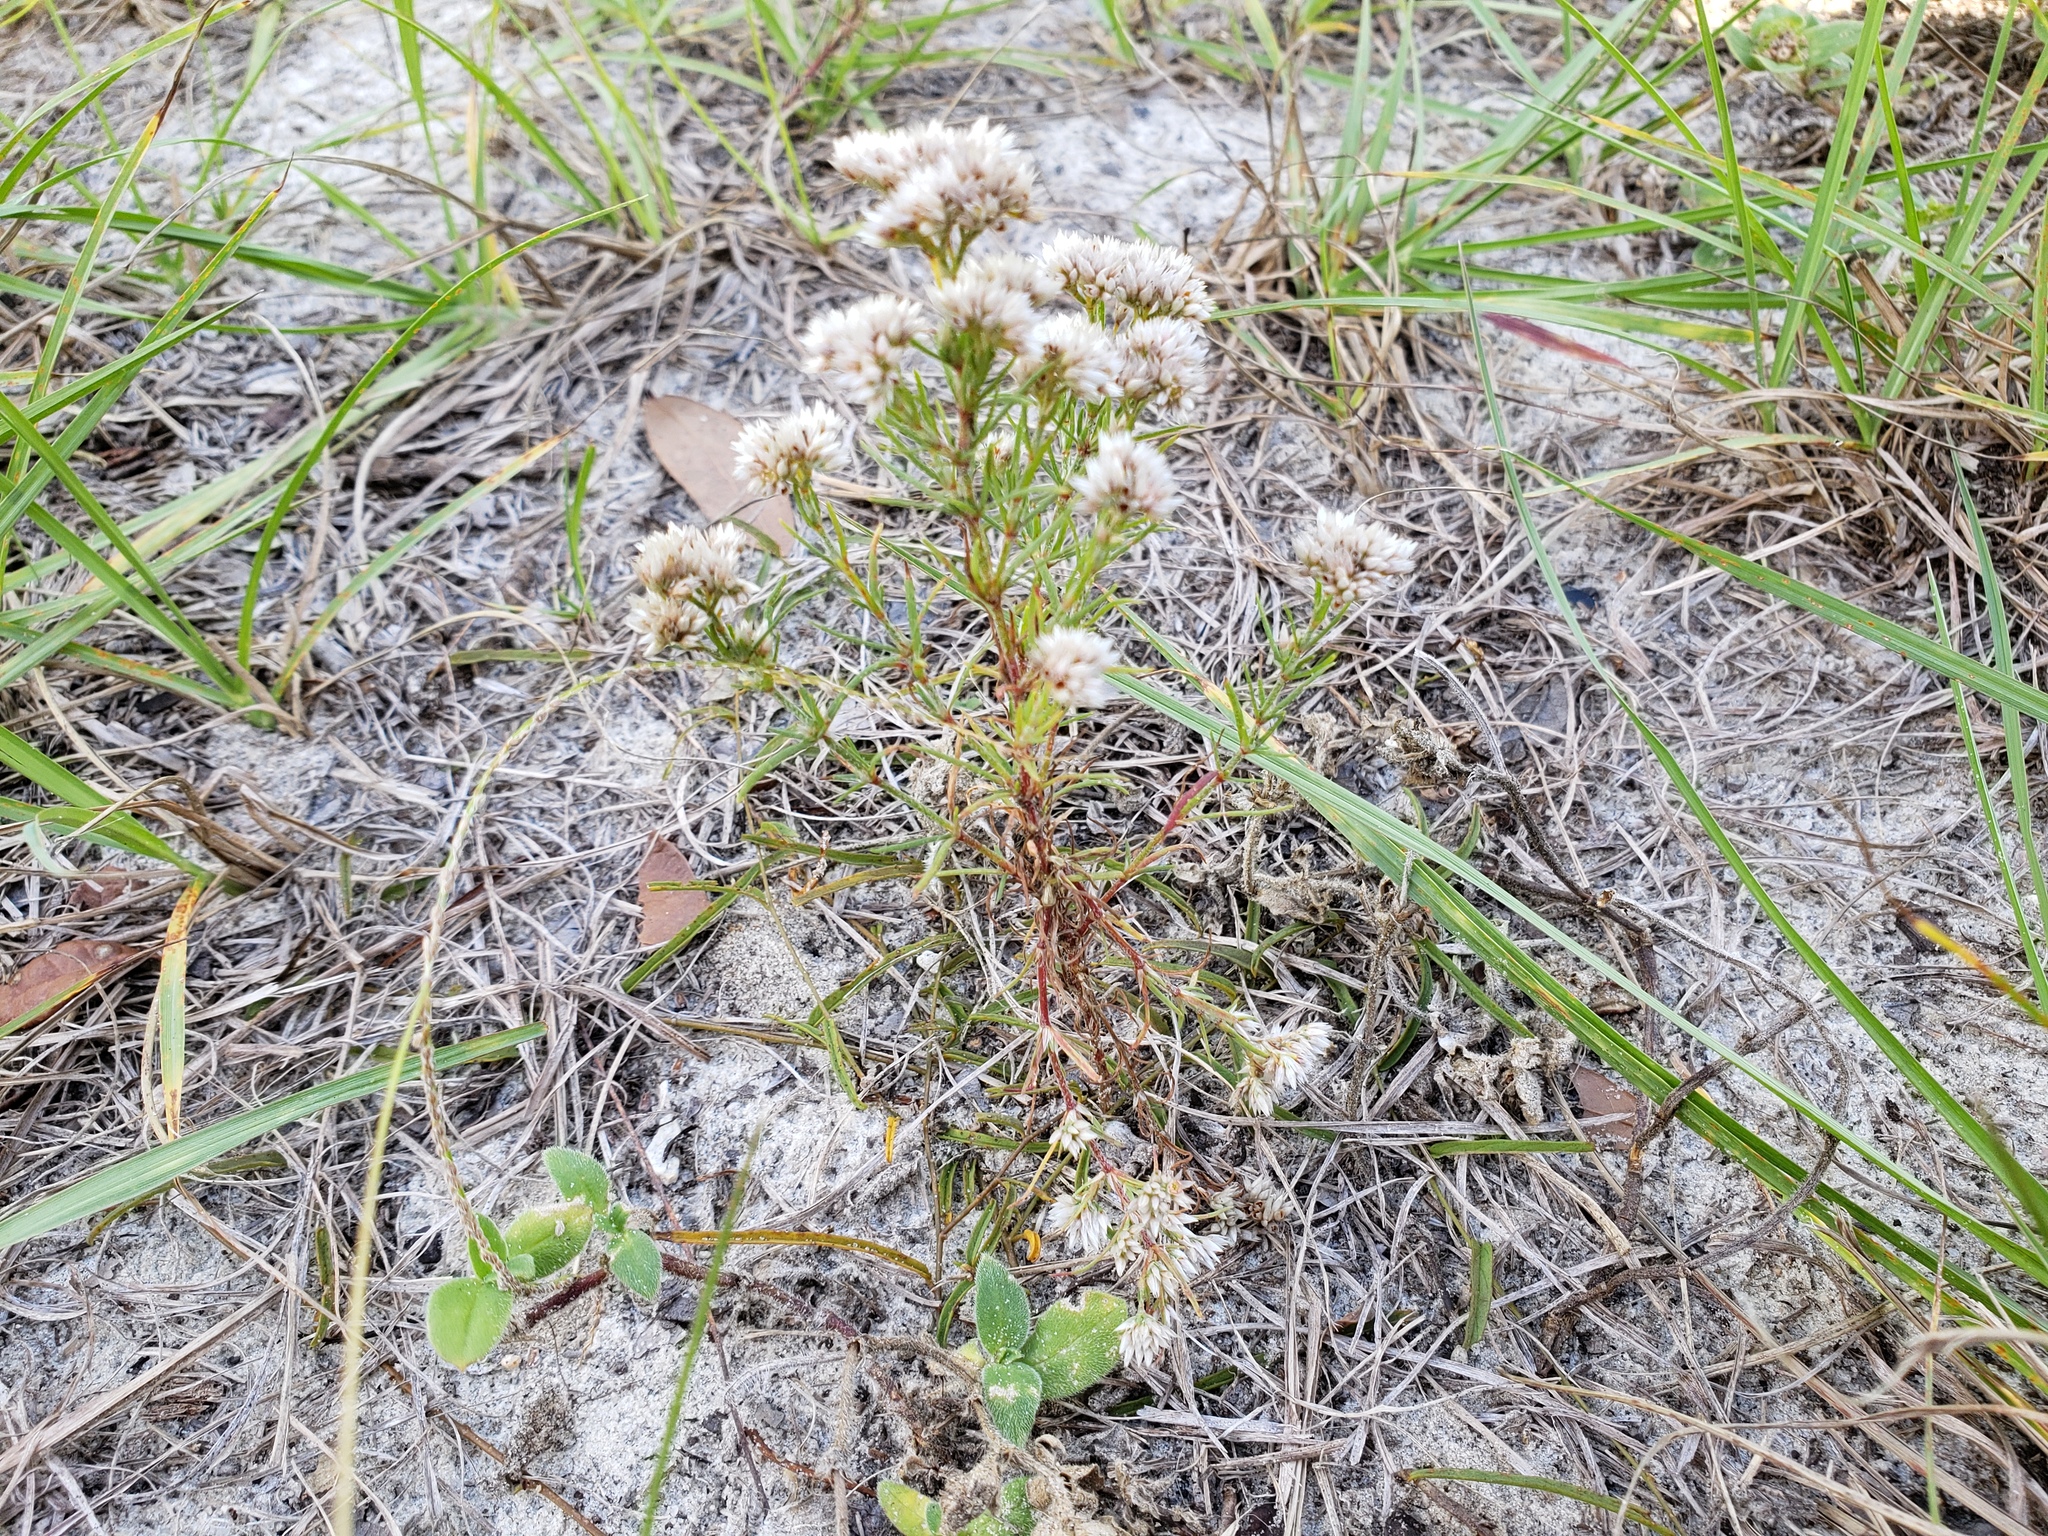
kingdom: Plantae
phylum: Tracheophyta
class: Magnoliopsida
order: Asterales
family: Asteraceae
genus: Pseudognaphalium
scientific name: Pseudognaphalium obtusifolium
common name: Eastern rabbit-tobacco
